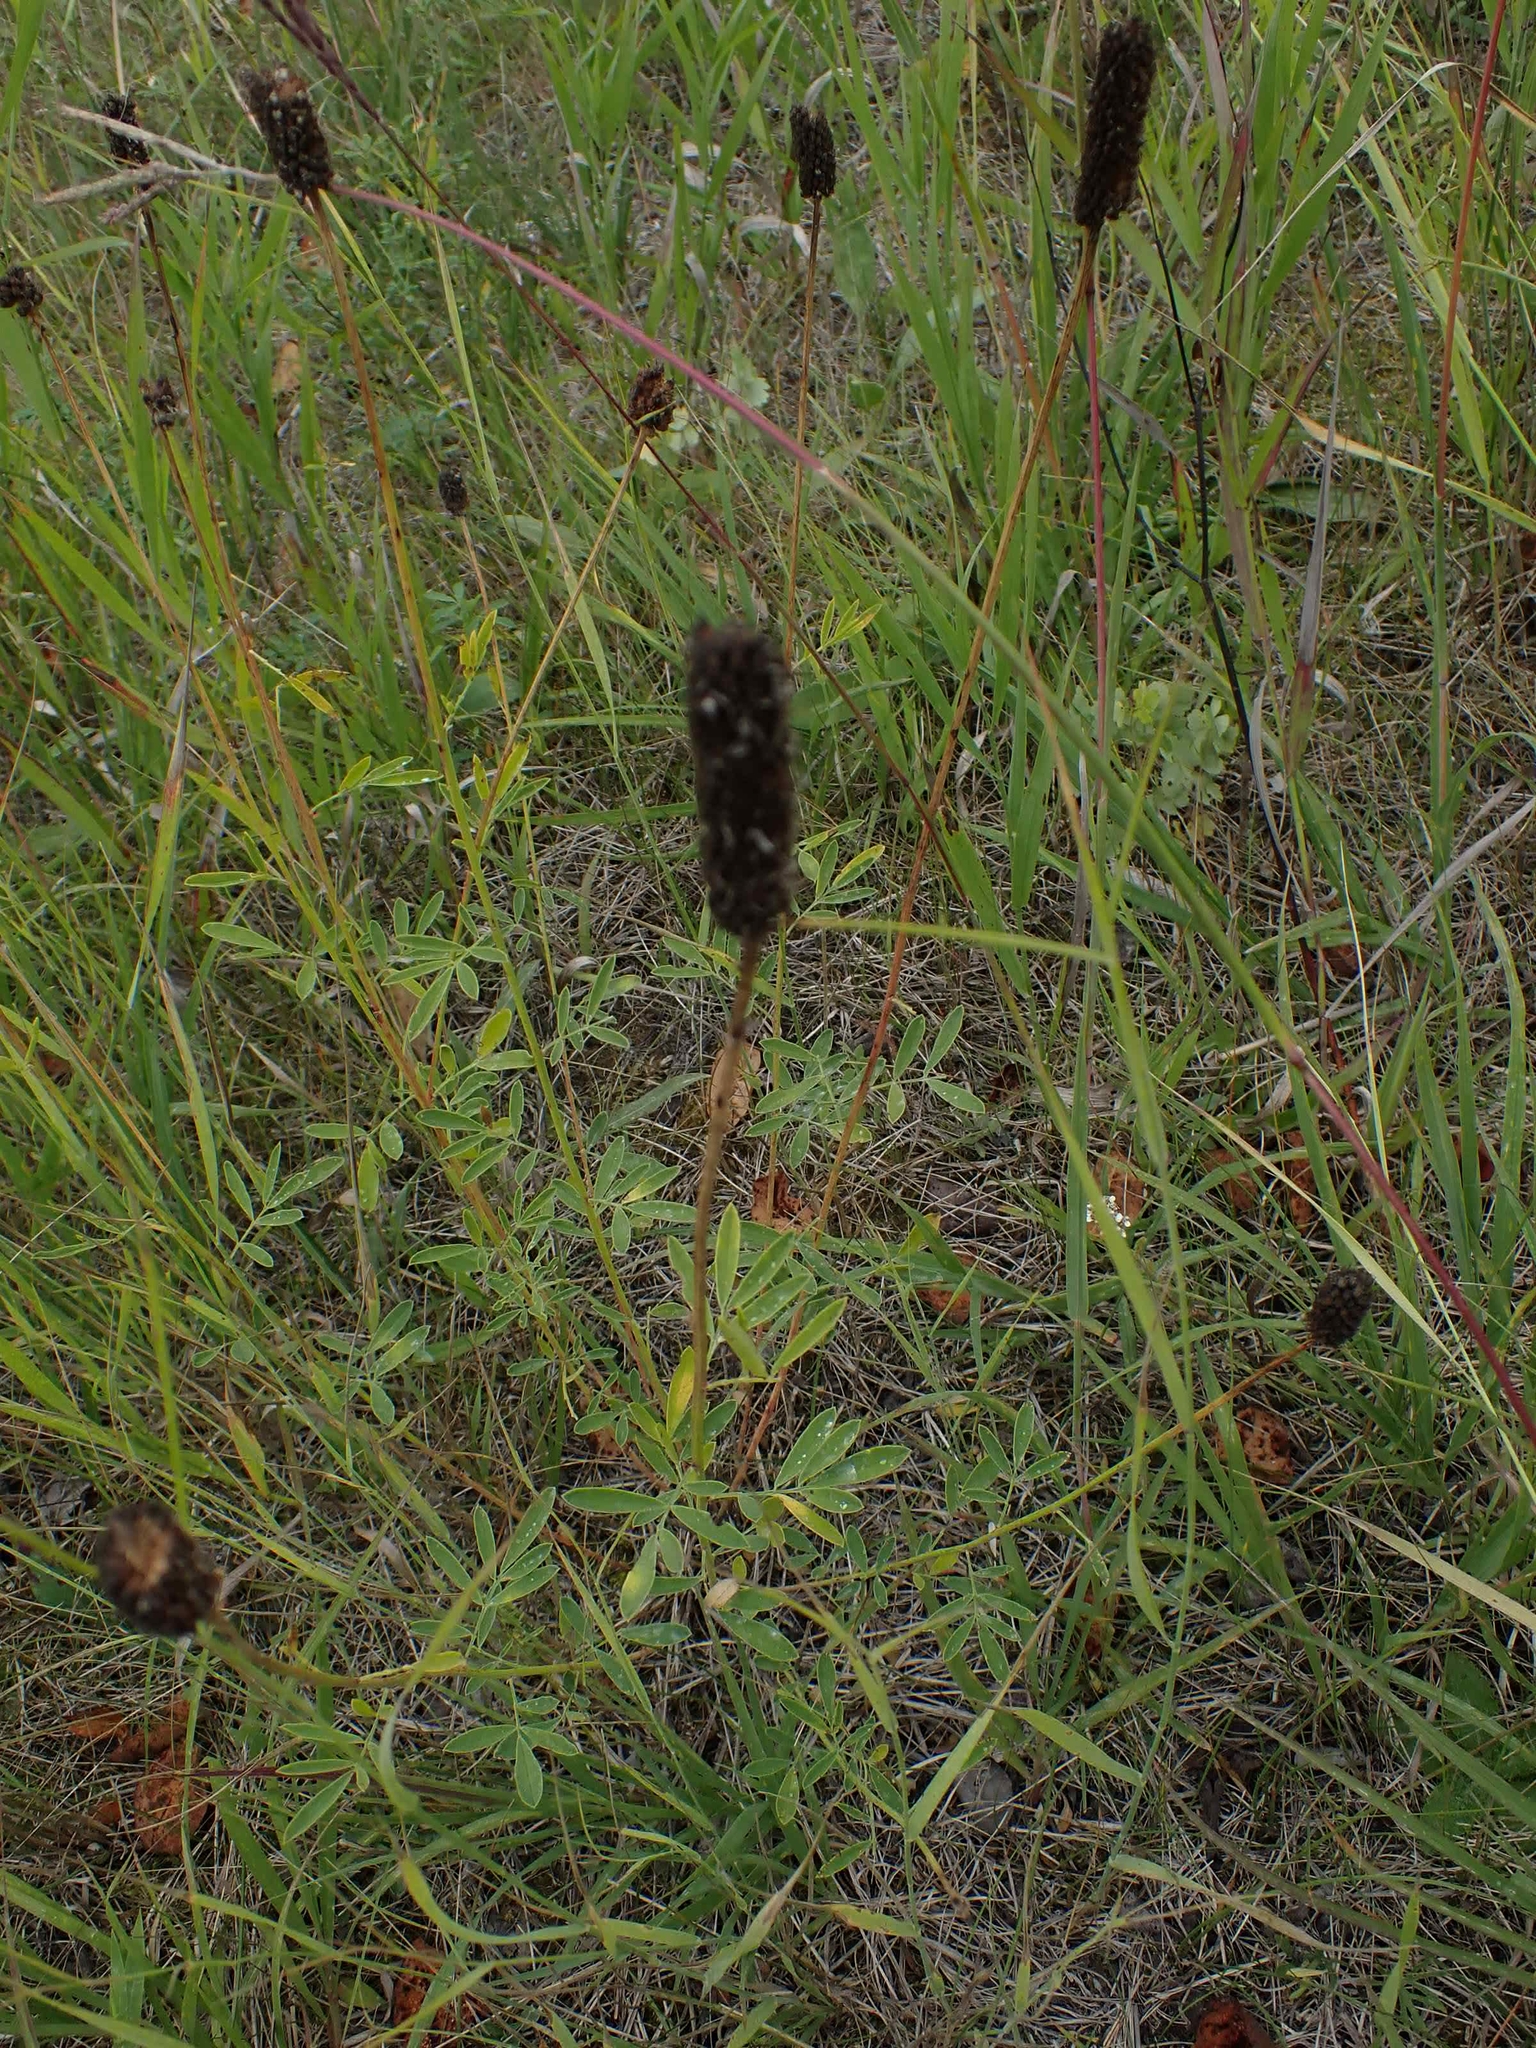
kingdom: Plantae
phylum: Tracheophyta
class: Magnoliopsida
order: Fabales
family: Fabaceae
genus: Dalea
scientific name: Dalea candida
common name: White prairie-clover
